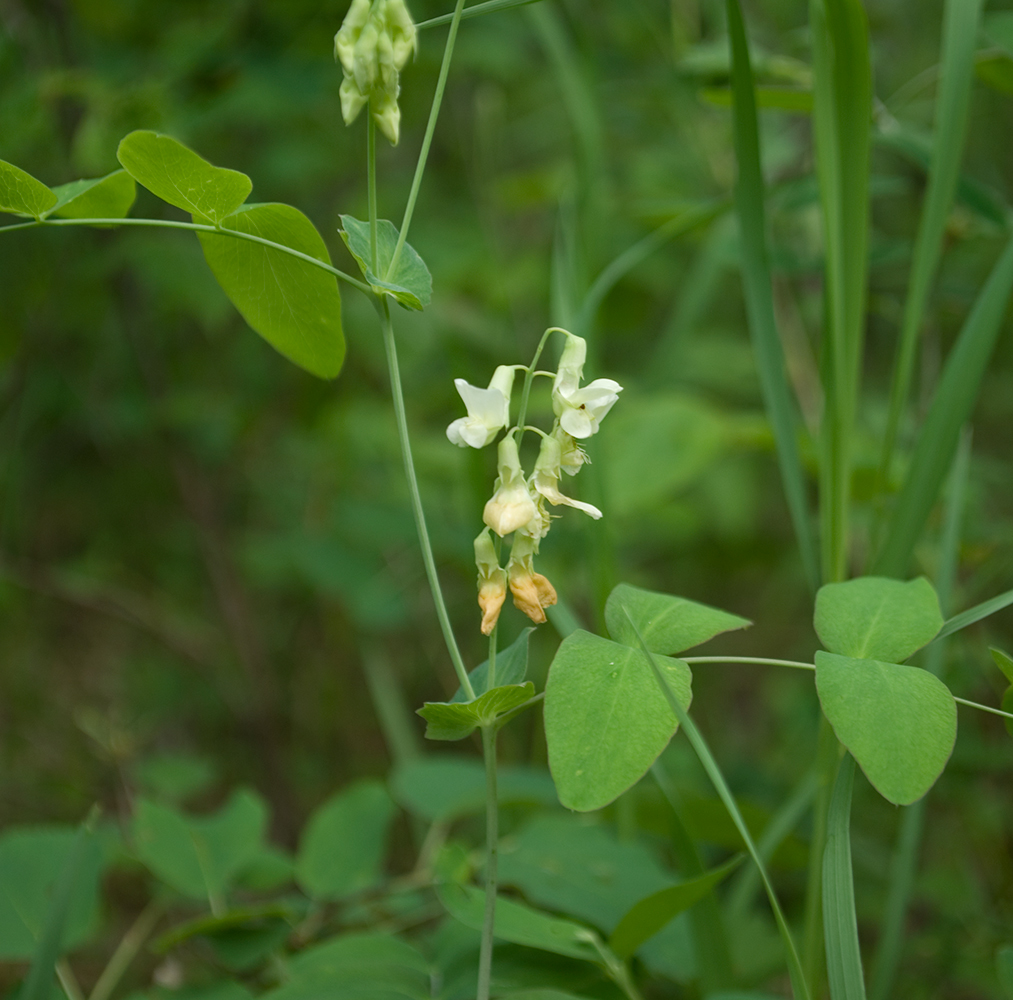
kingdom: Plantae
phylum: Tracheophyta
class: Magnoliopsida
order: Fabales
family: Fabaceae
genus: Lathyrus
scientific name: Lathyrus ochroleucus
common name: Pale vetchling
